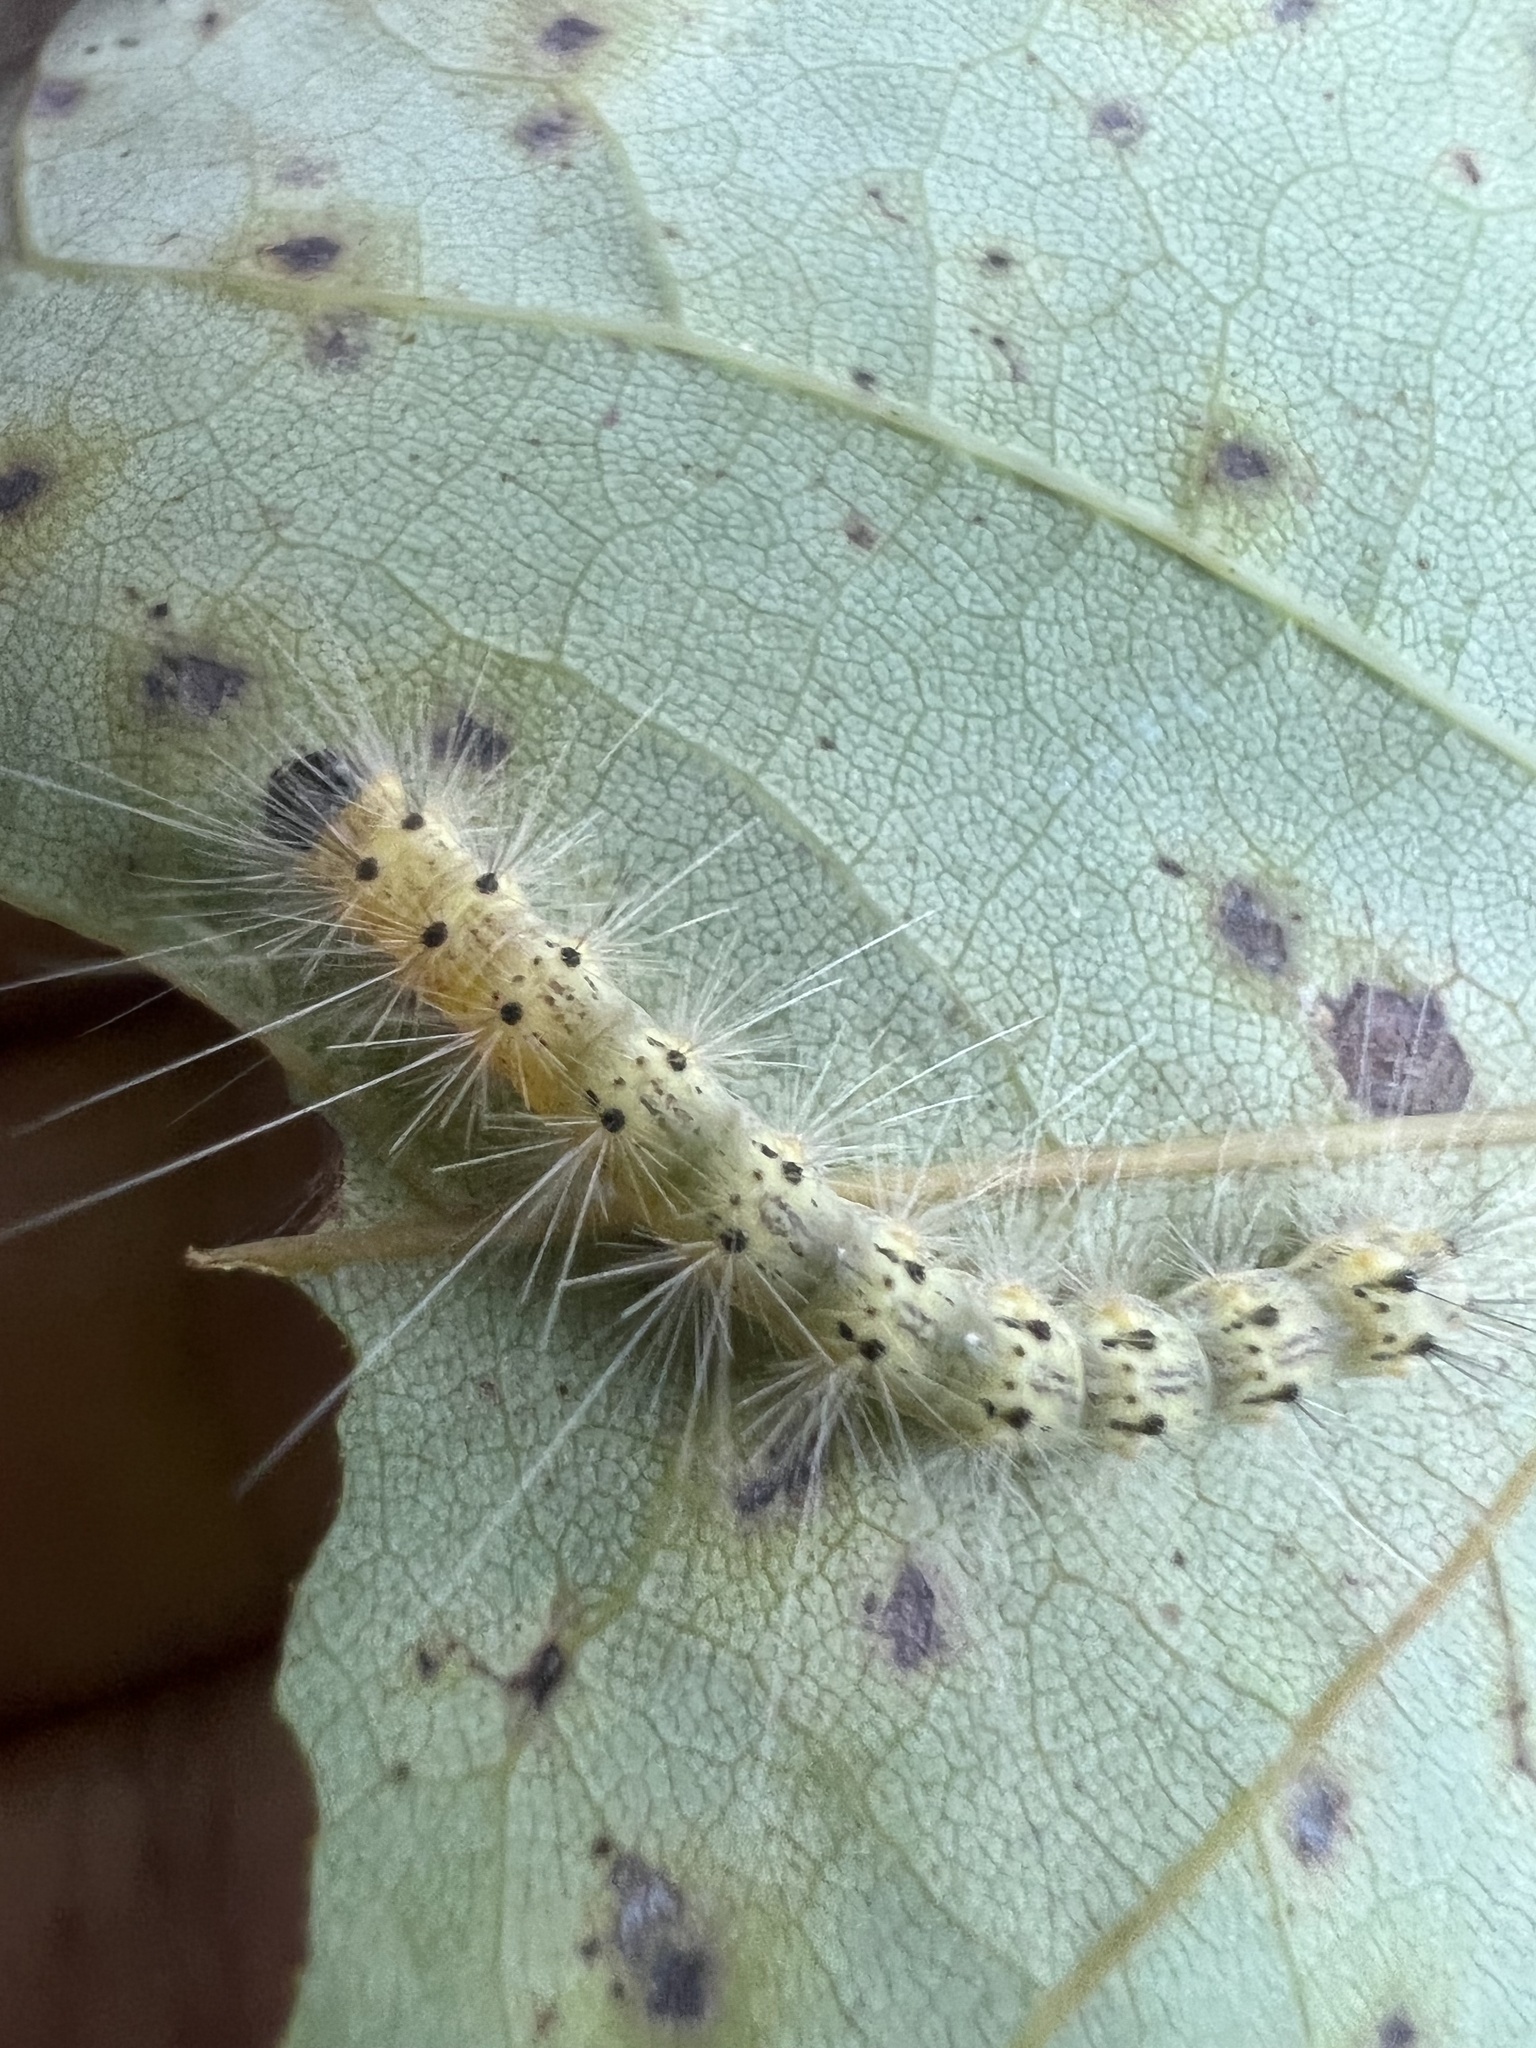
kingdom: Animalia
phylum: Arthropoda
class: Insecta
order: Lepidoptera
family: Erebidae
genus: Hyphantria
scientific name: Hyphantria cunea
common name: American white moth
